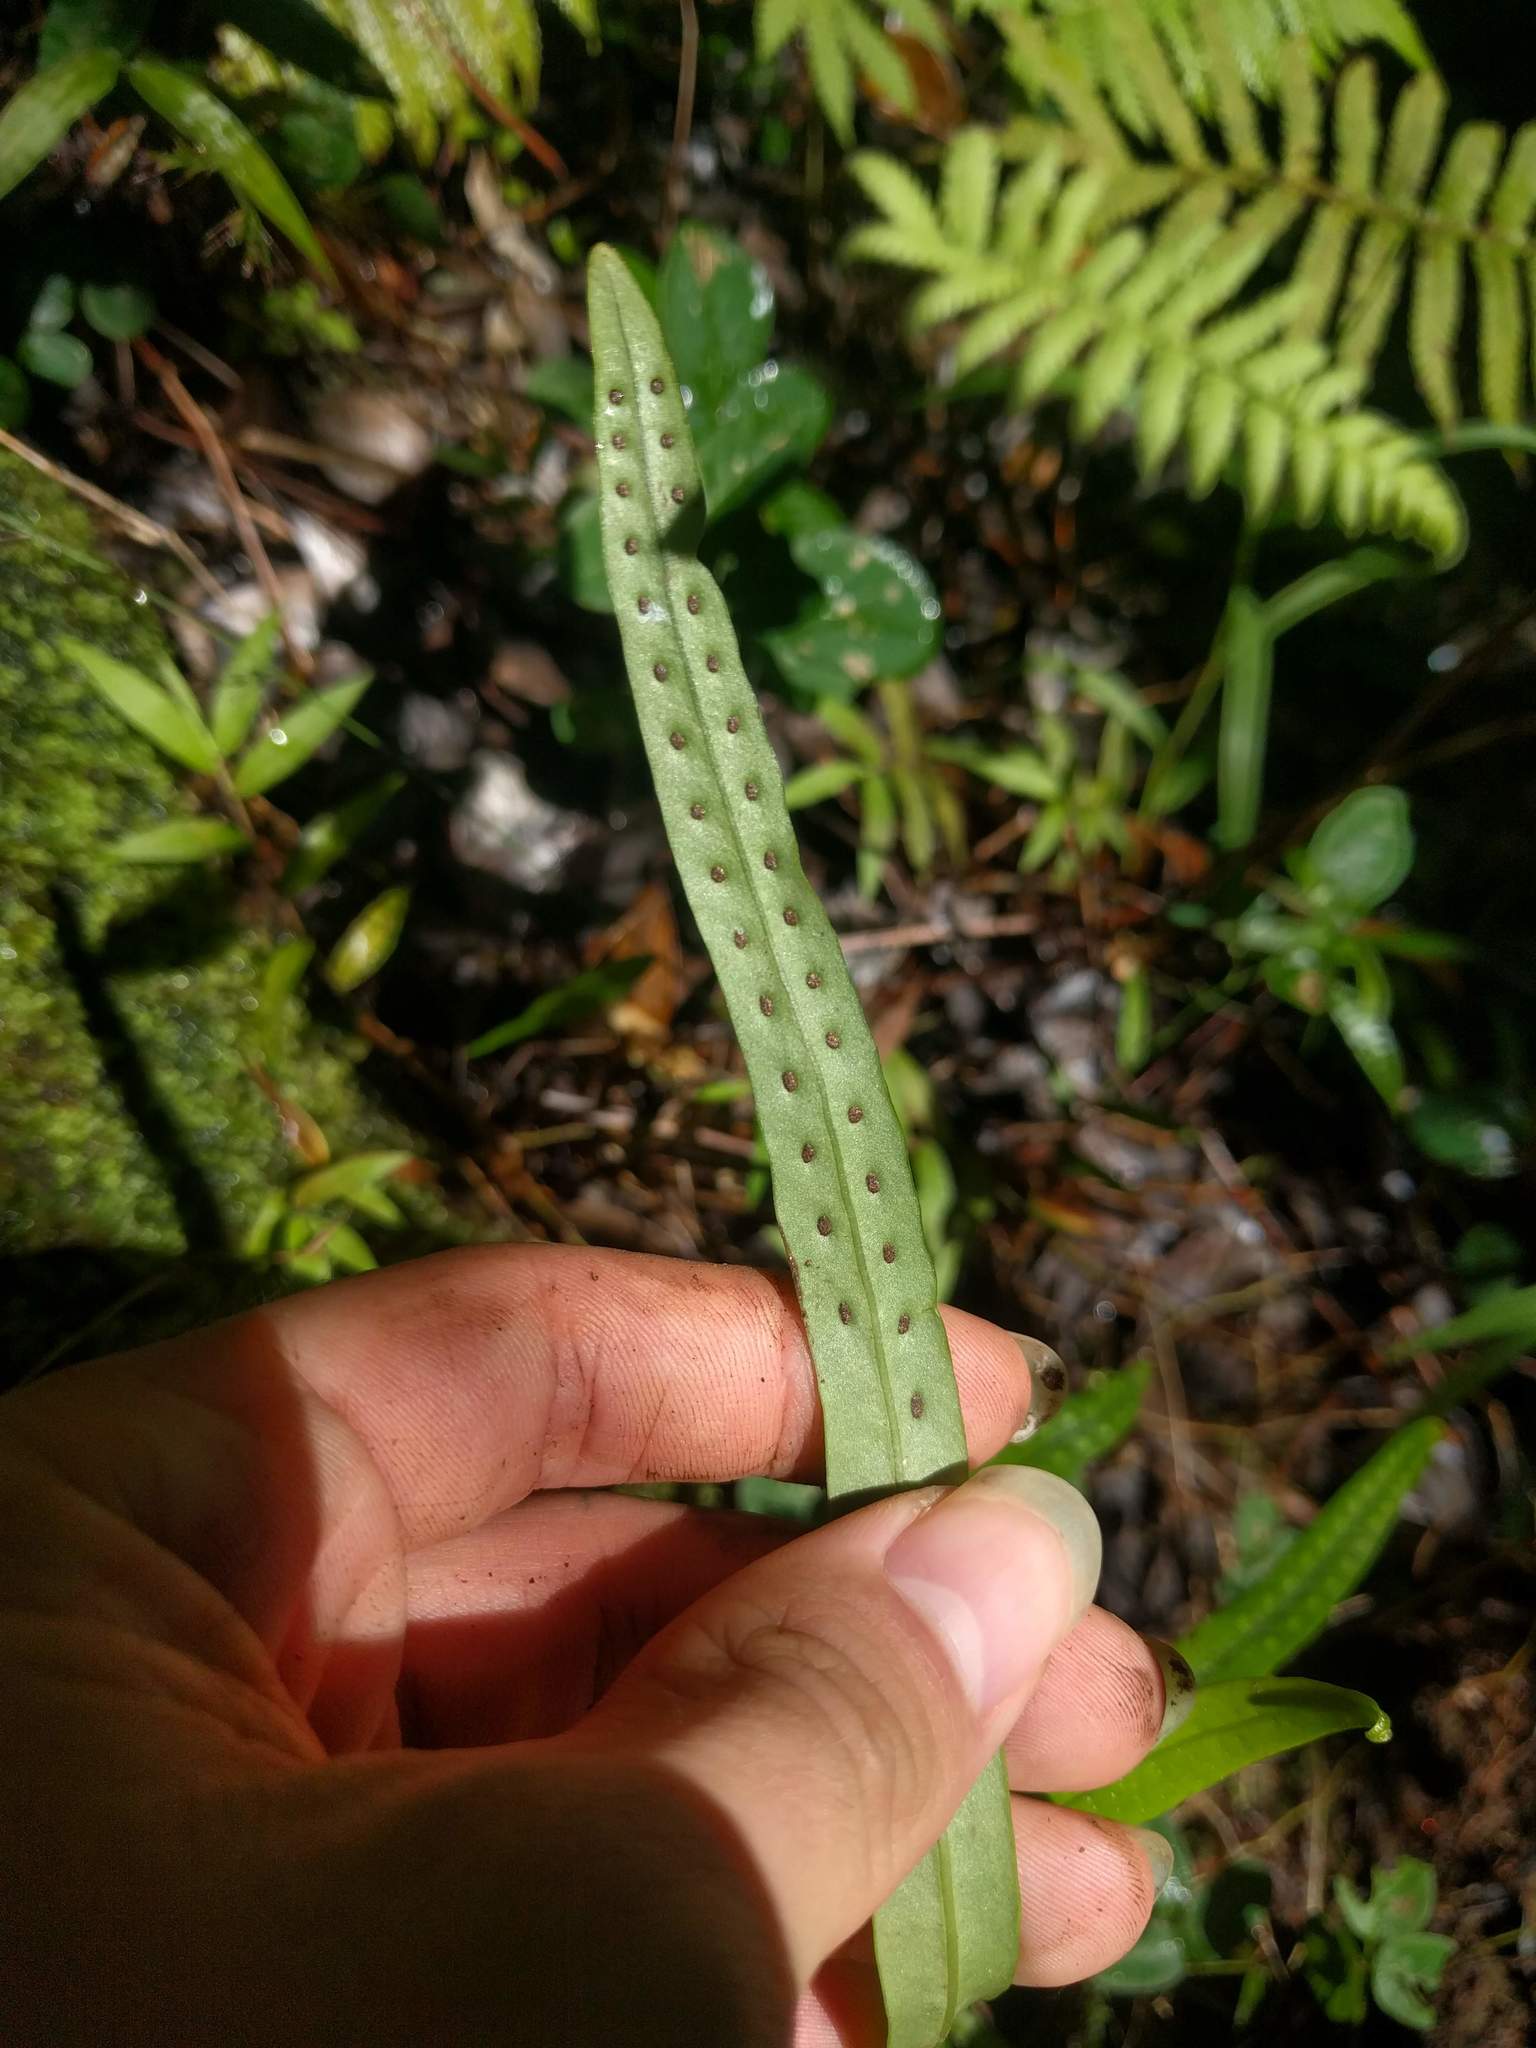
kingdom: Plantae
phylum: Tracheophyta
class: Polypodiopsida
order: Polypodiales
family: Polypodiaceae
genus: Lepisorus
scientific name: Lepisorus thunbergianus
